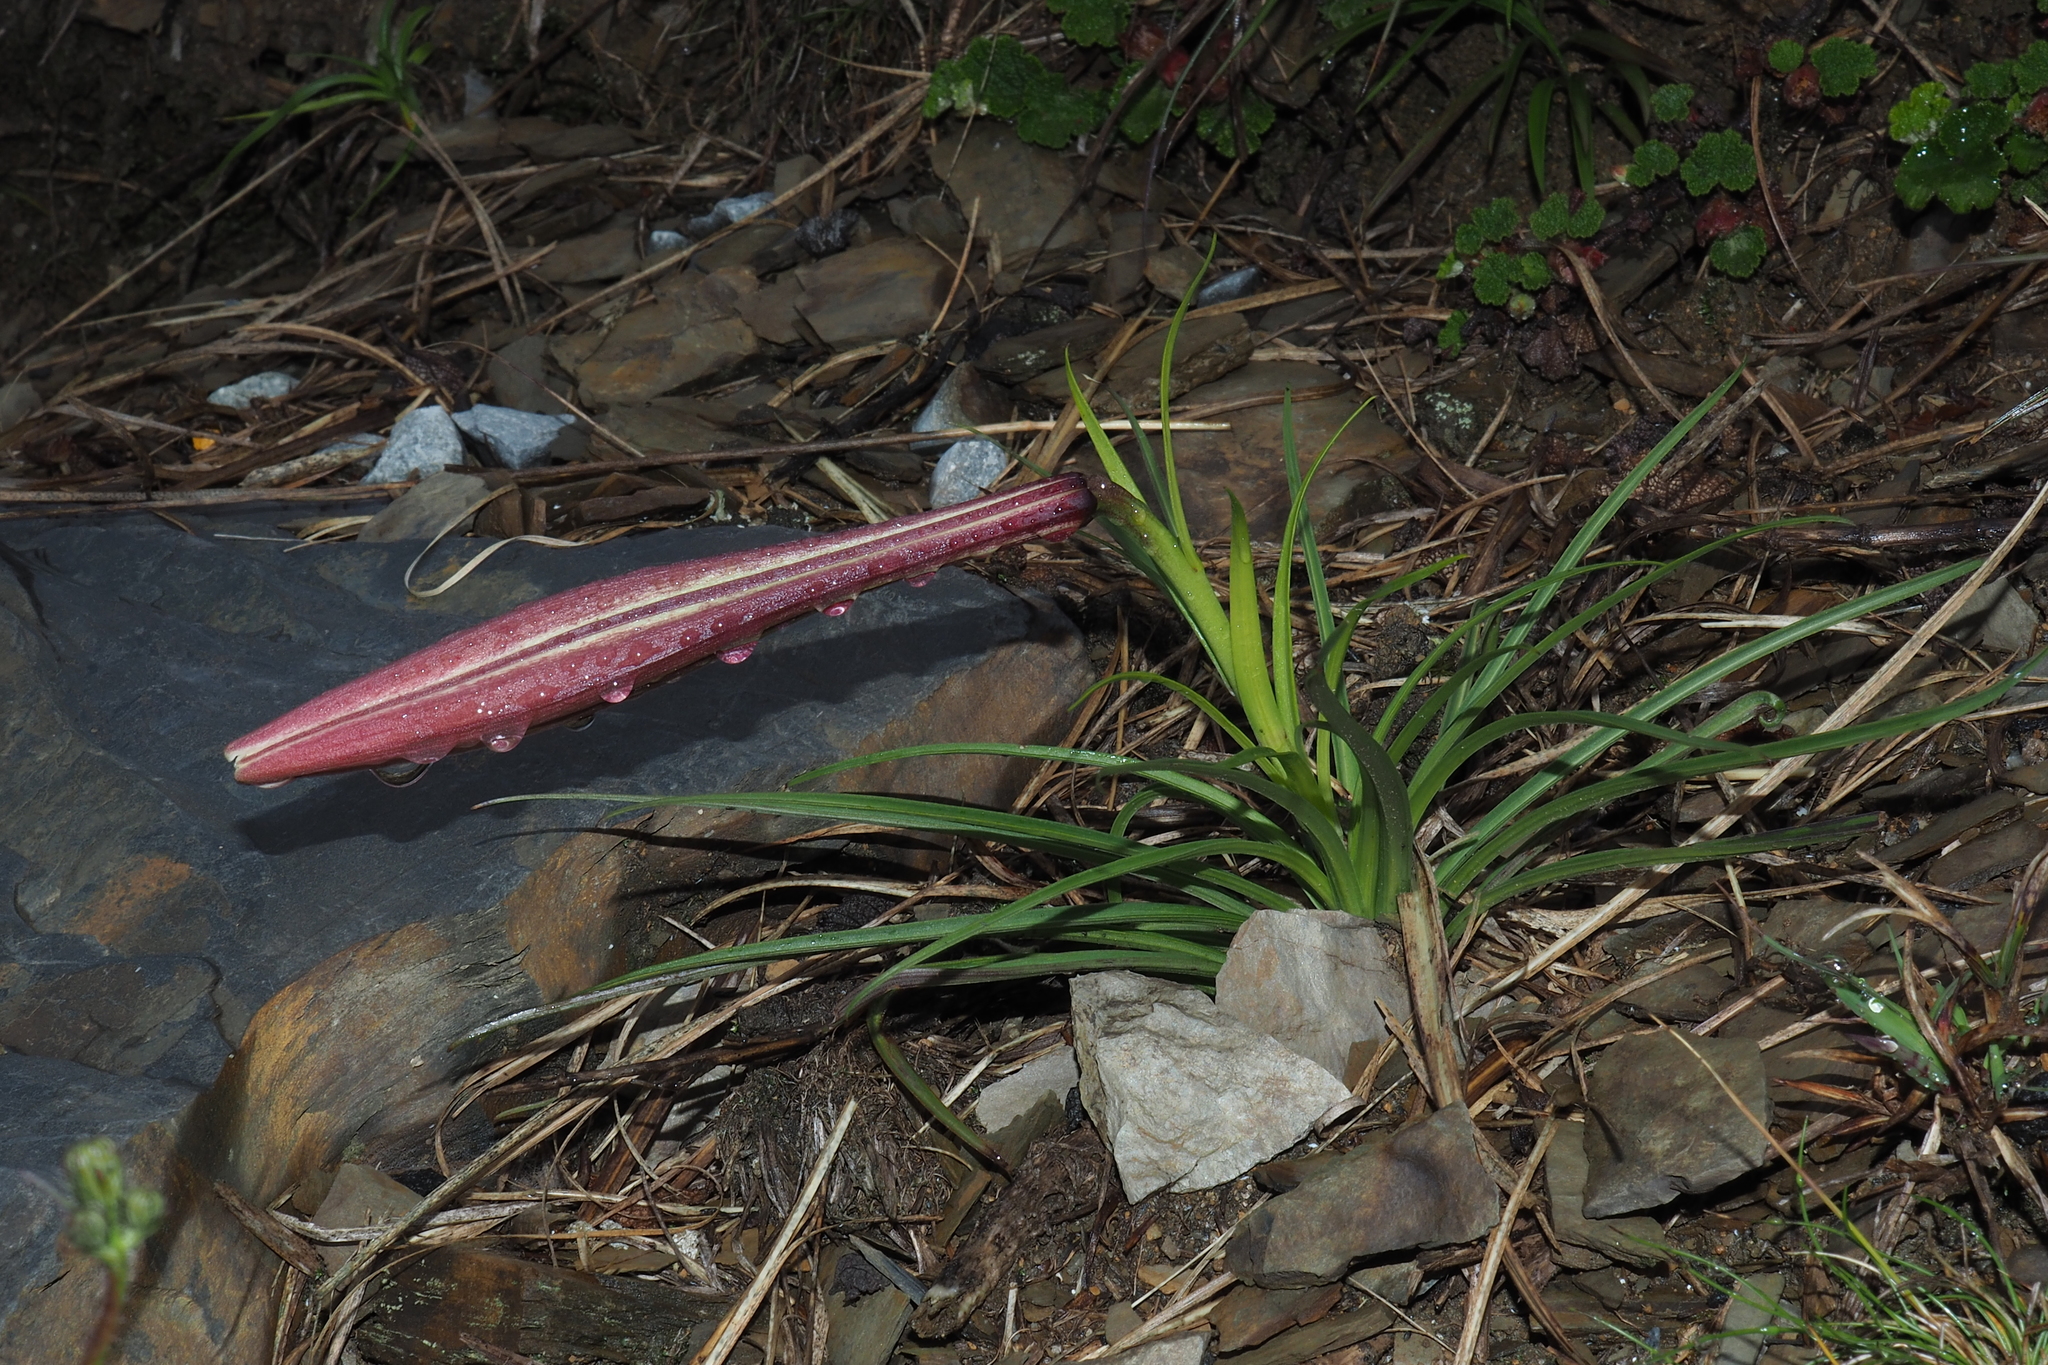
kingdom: Plantae
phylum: Tracheophyta
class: Liliopsida
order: Liliales
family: Liliaceae
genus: Lilium
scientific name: Lilium formosanum
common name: Formosa lily
